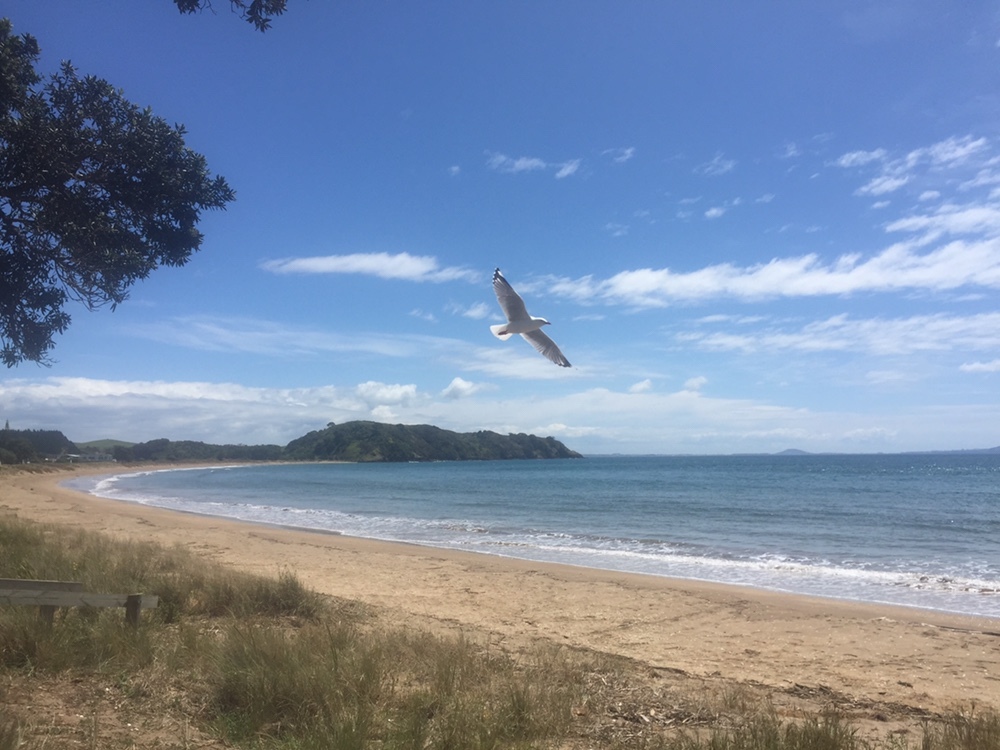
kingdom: Animalia
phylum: Chordata
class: Aves
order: Charadriiformes
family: Laridae
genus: Chroicocephalus
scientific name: Chroicocephalus novaehollandiae
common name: Silver gull
